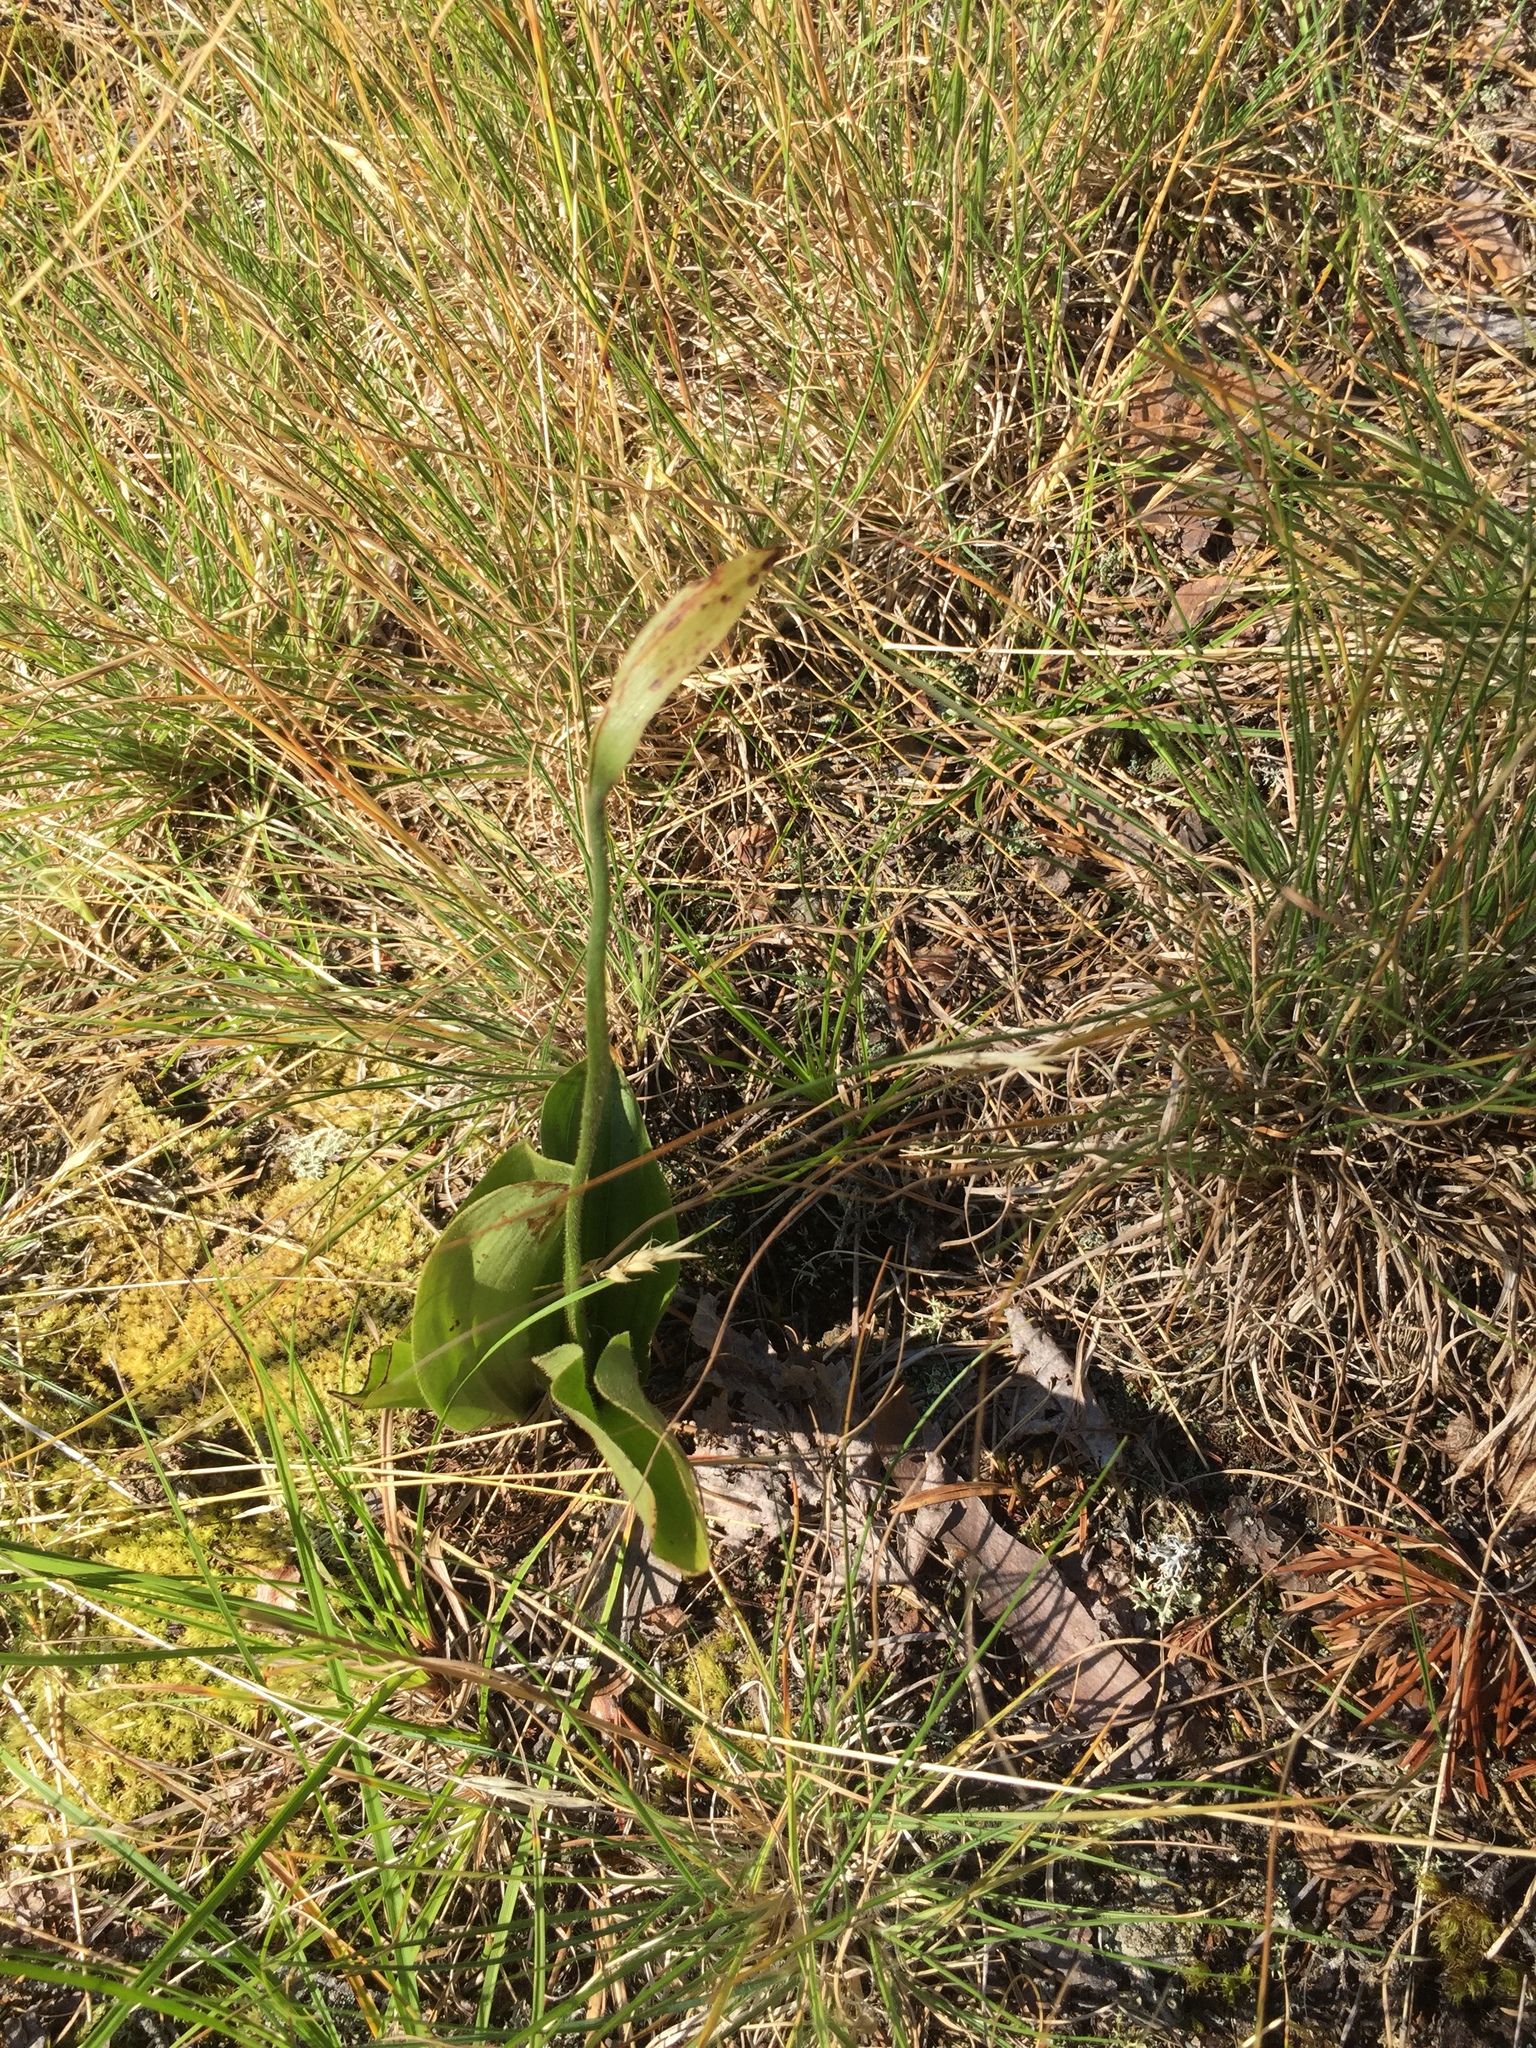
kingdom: Plantae
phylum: Tracheophyta
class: Liliopsida
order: Asparagales
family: Orchidaceae
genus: Cypripedium
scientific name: Cypripedium acaule
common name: Pink lady's-slipper
